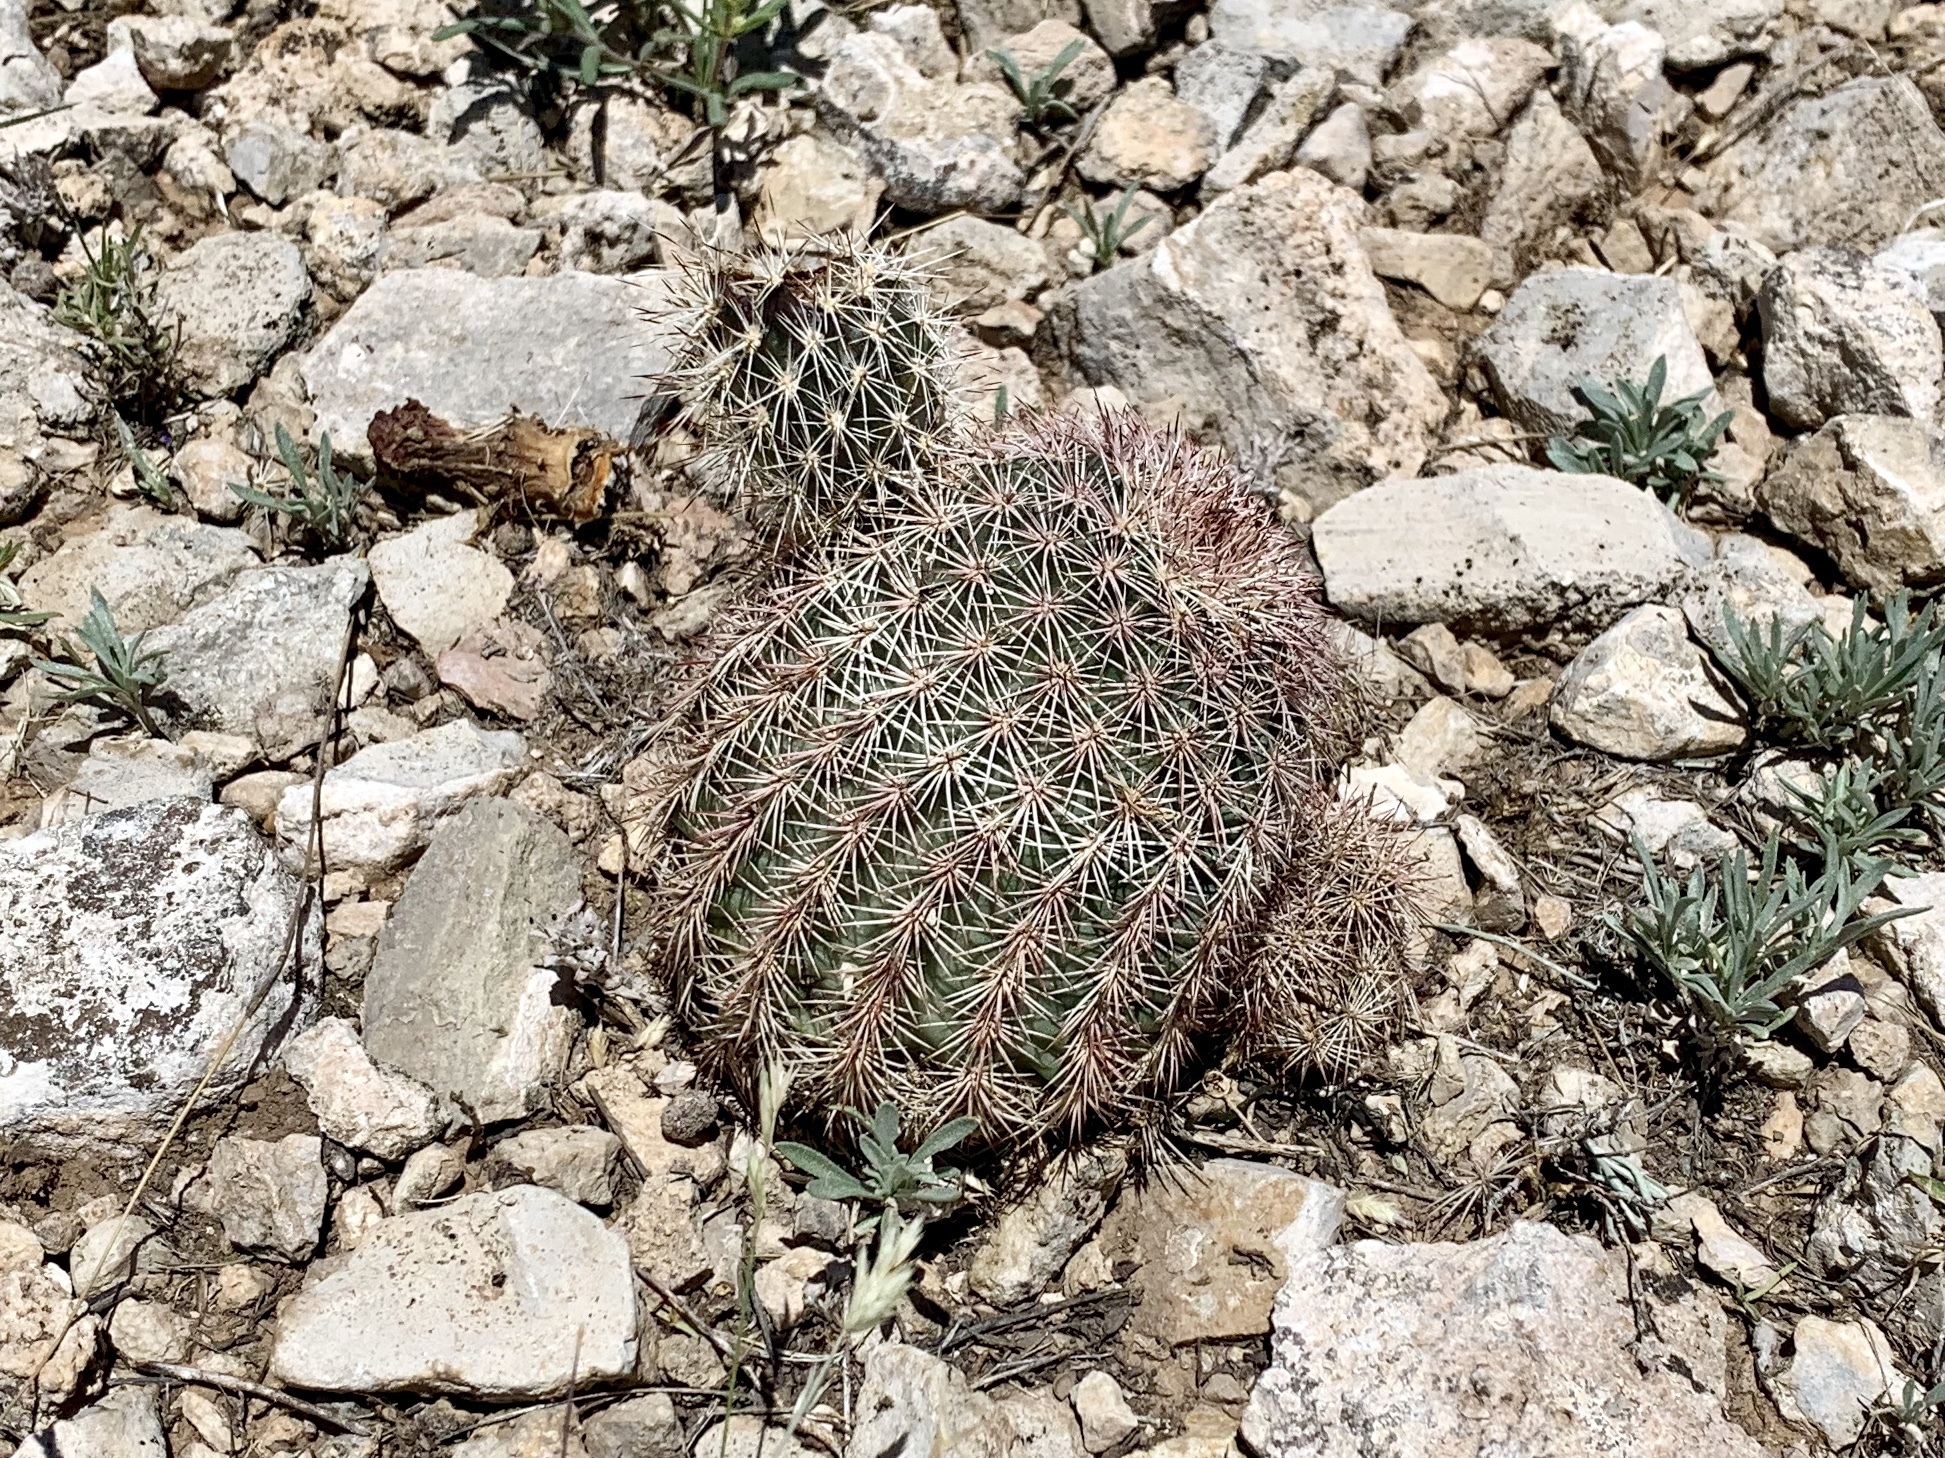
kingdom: Plantae
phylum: Tracheophyta
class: Magnoliopsida
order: Caryophyllales
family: Cactaceae
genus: Echinocereus
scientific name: Echinocereus dasyacanthus
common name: Spiny hedgehog cactus
